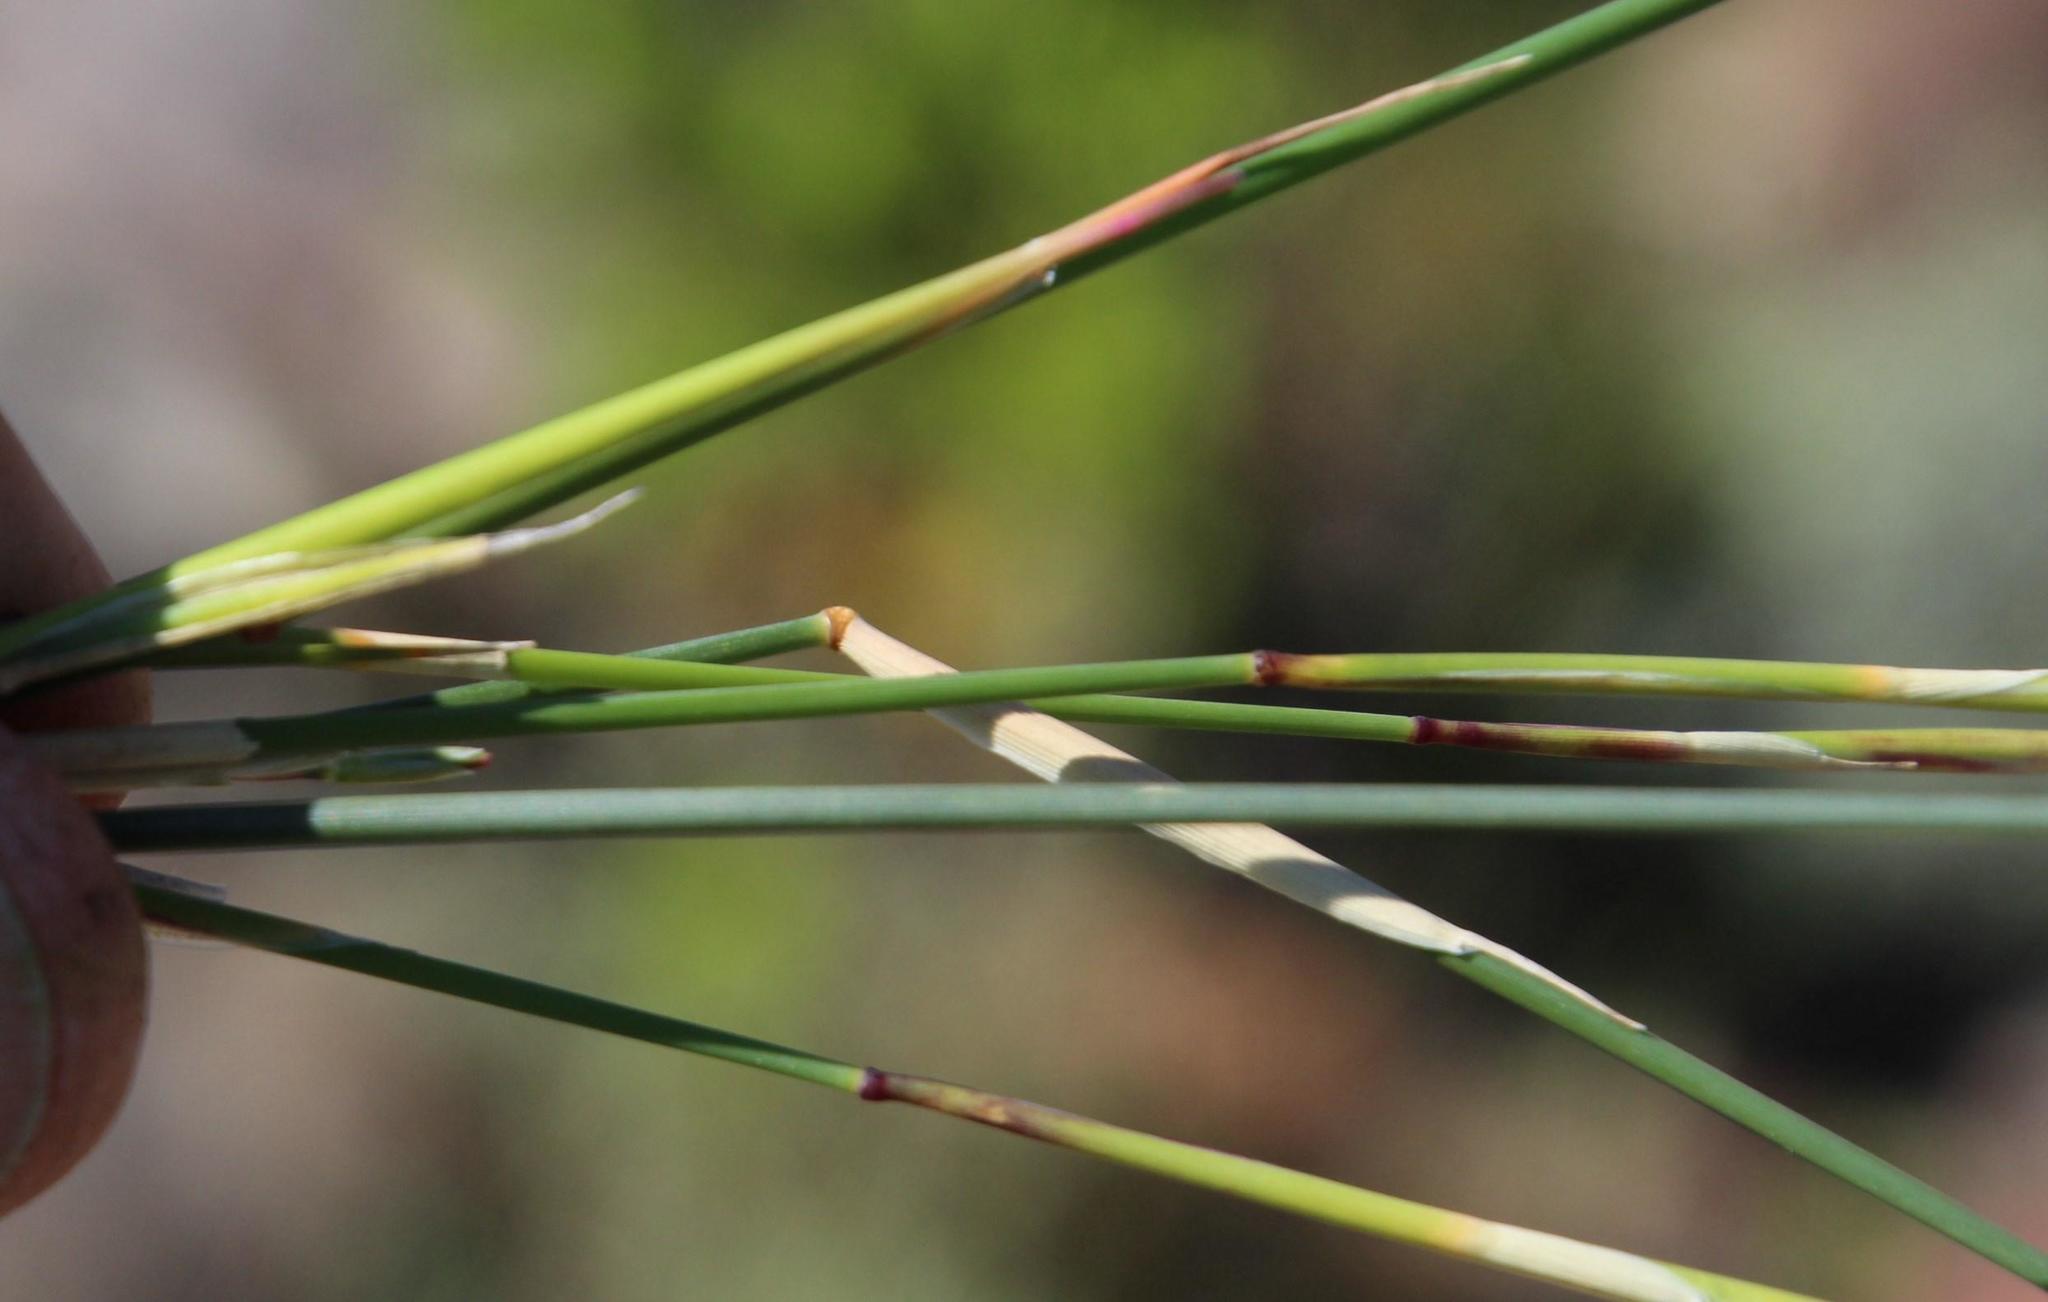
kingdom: Plantae
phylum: Tracheophyta
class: Liliopsida
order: Poales
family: Poaceae
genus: Ehrharta
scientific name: Ehrharta ramosa
